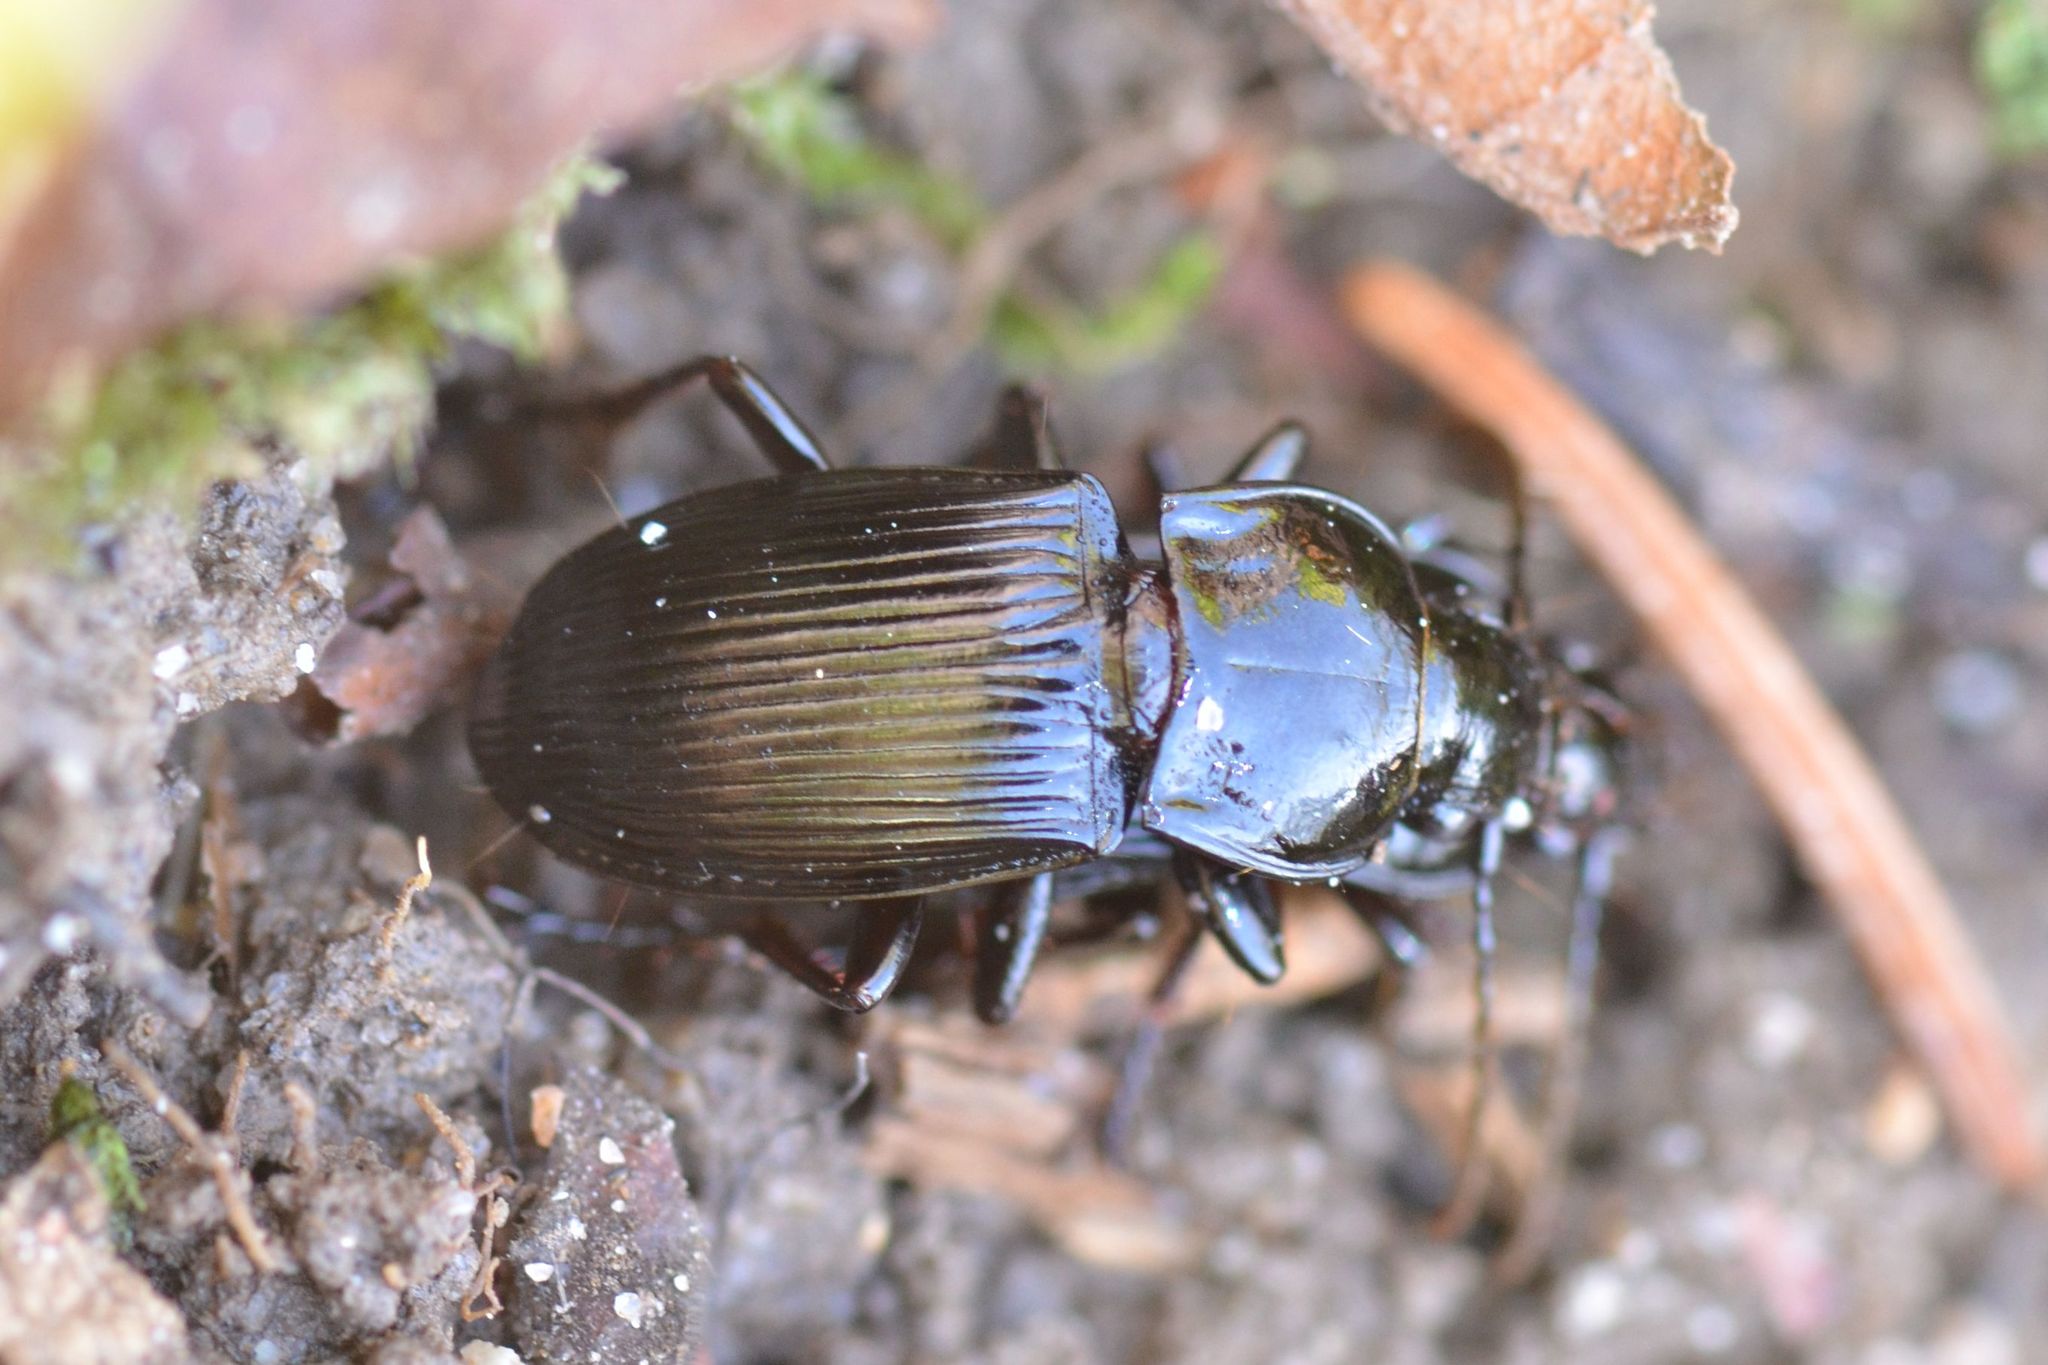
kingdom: Animalia
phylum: Arthropoda
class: Insecta
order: Coleoptera
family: Carabidae
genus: Abax
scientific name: Abax parallelus
